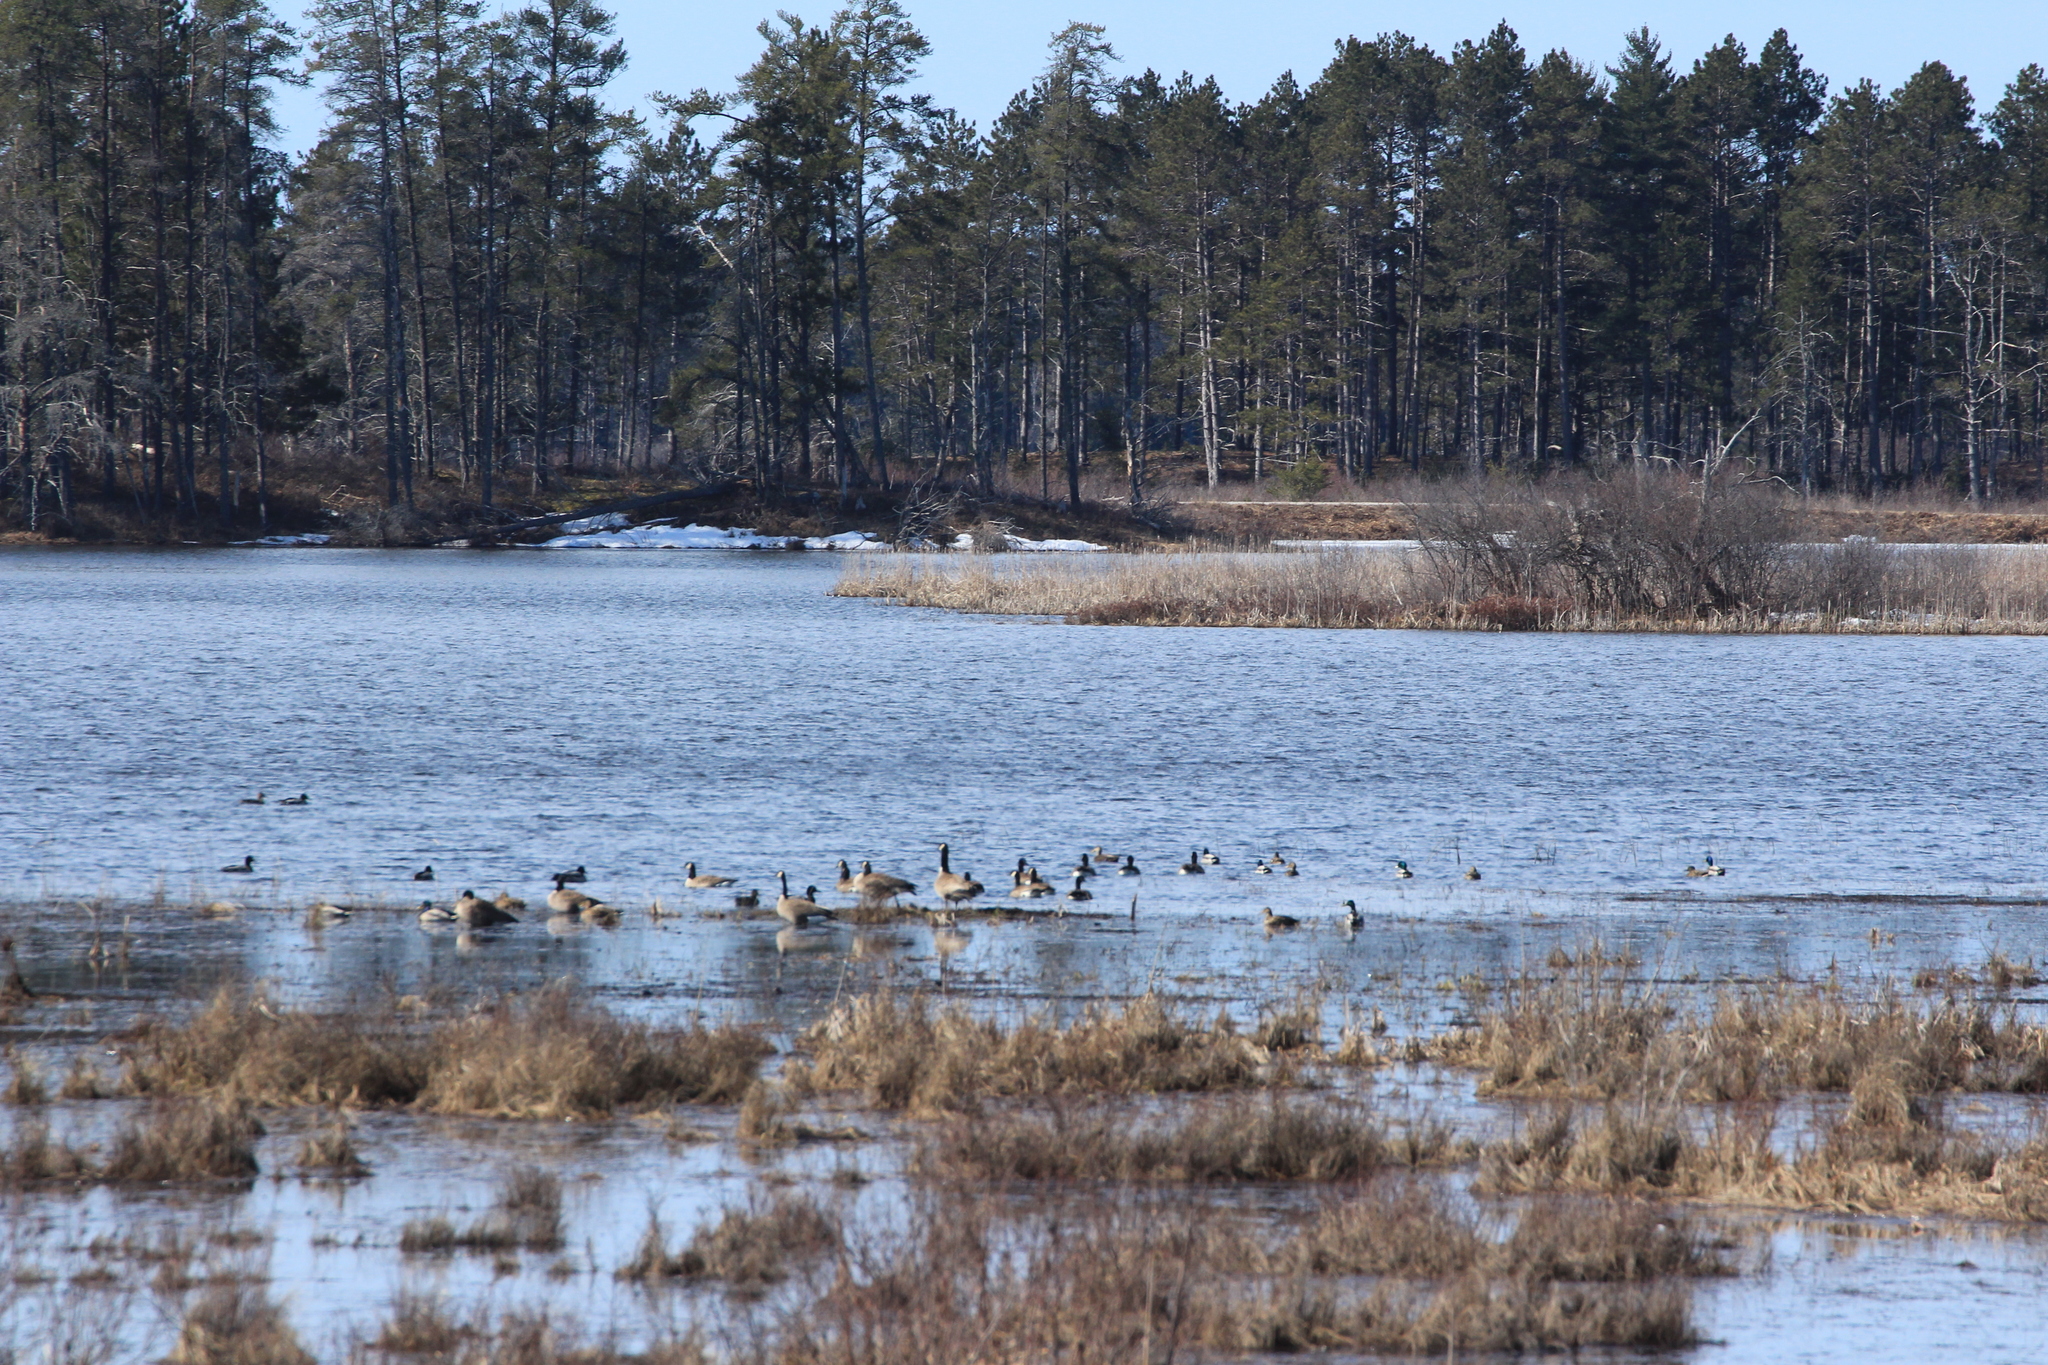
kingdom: Animalia
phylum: Chordata
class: Aves
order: Anseriformes
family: Anatidae
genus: Branta
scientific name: Branta canadensis
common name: Canada goose
